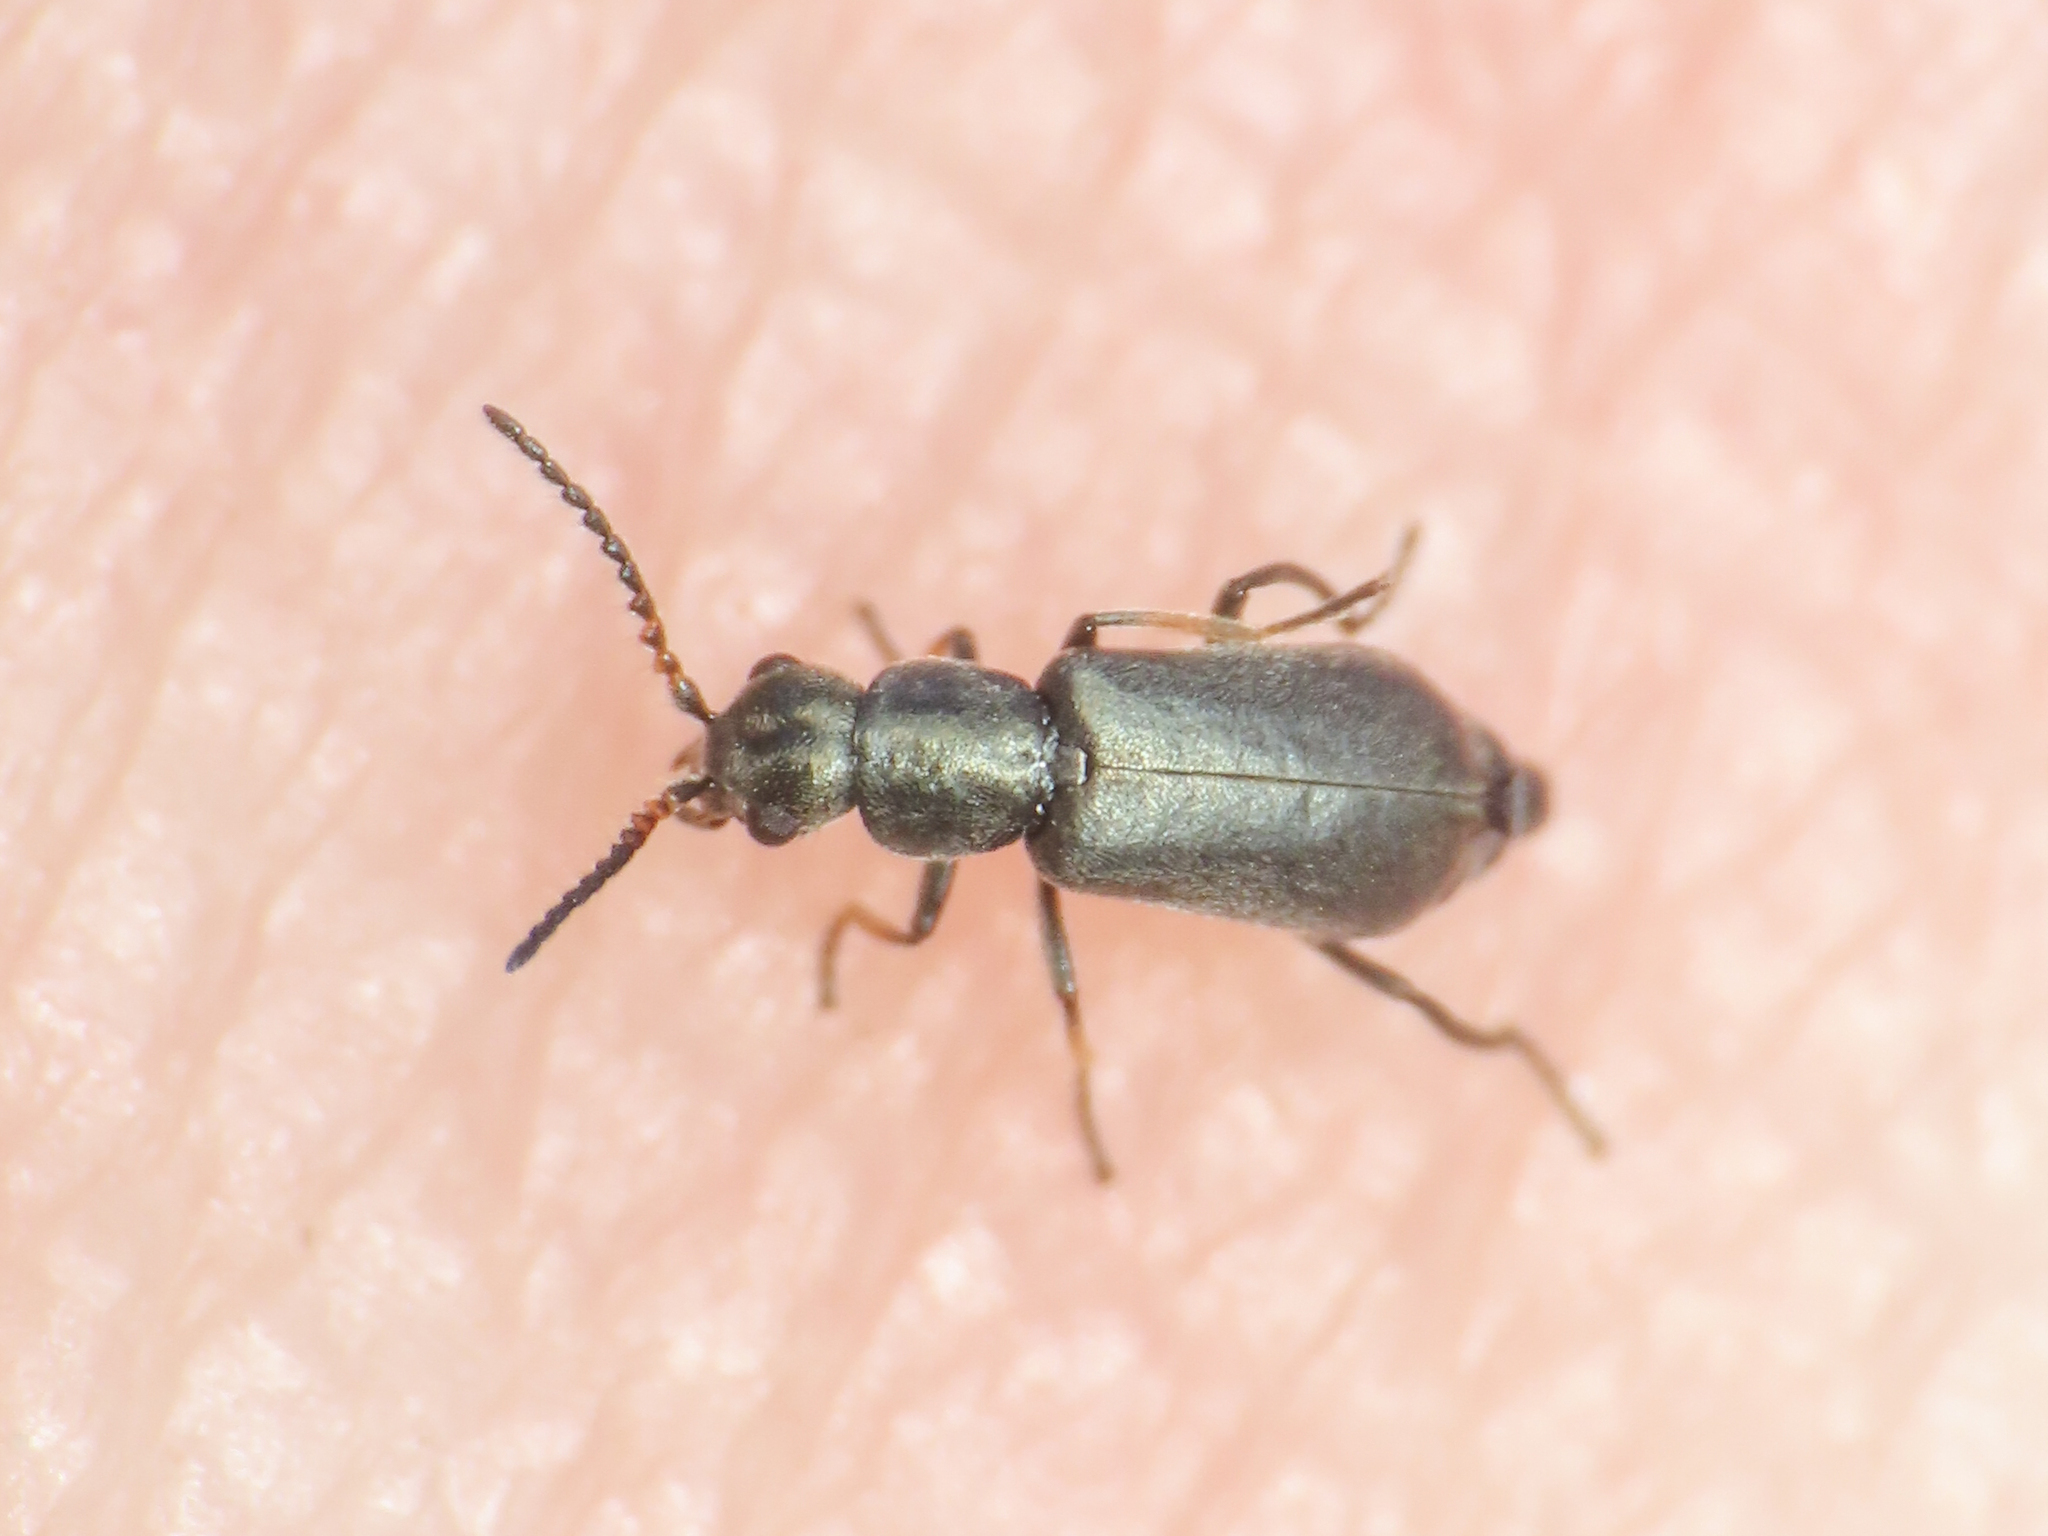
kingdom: Animalia
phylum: Arthropoda
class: Insecta
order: Coleoptera
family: Malachiidae
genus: Charopus
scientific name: Charopus pallipes
